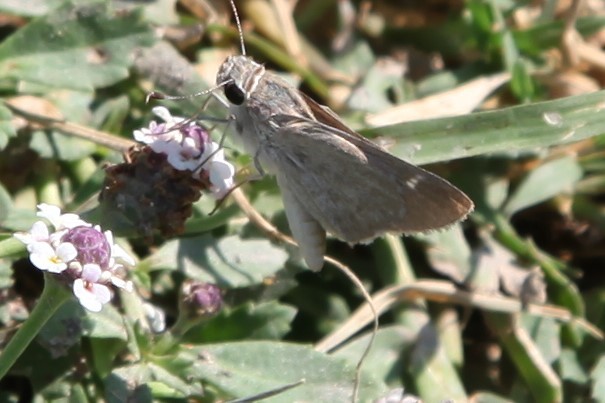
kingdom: Animalia
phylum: Arthropoda
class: Insecta
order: Lepidoptera
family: Hesperiidae
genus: Lerodea
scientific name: Lerodea eufala
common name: Eufala skipper
